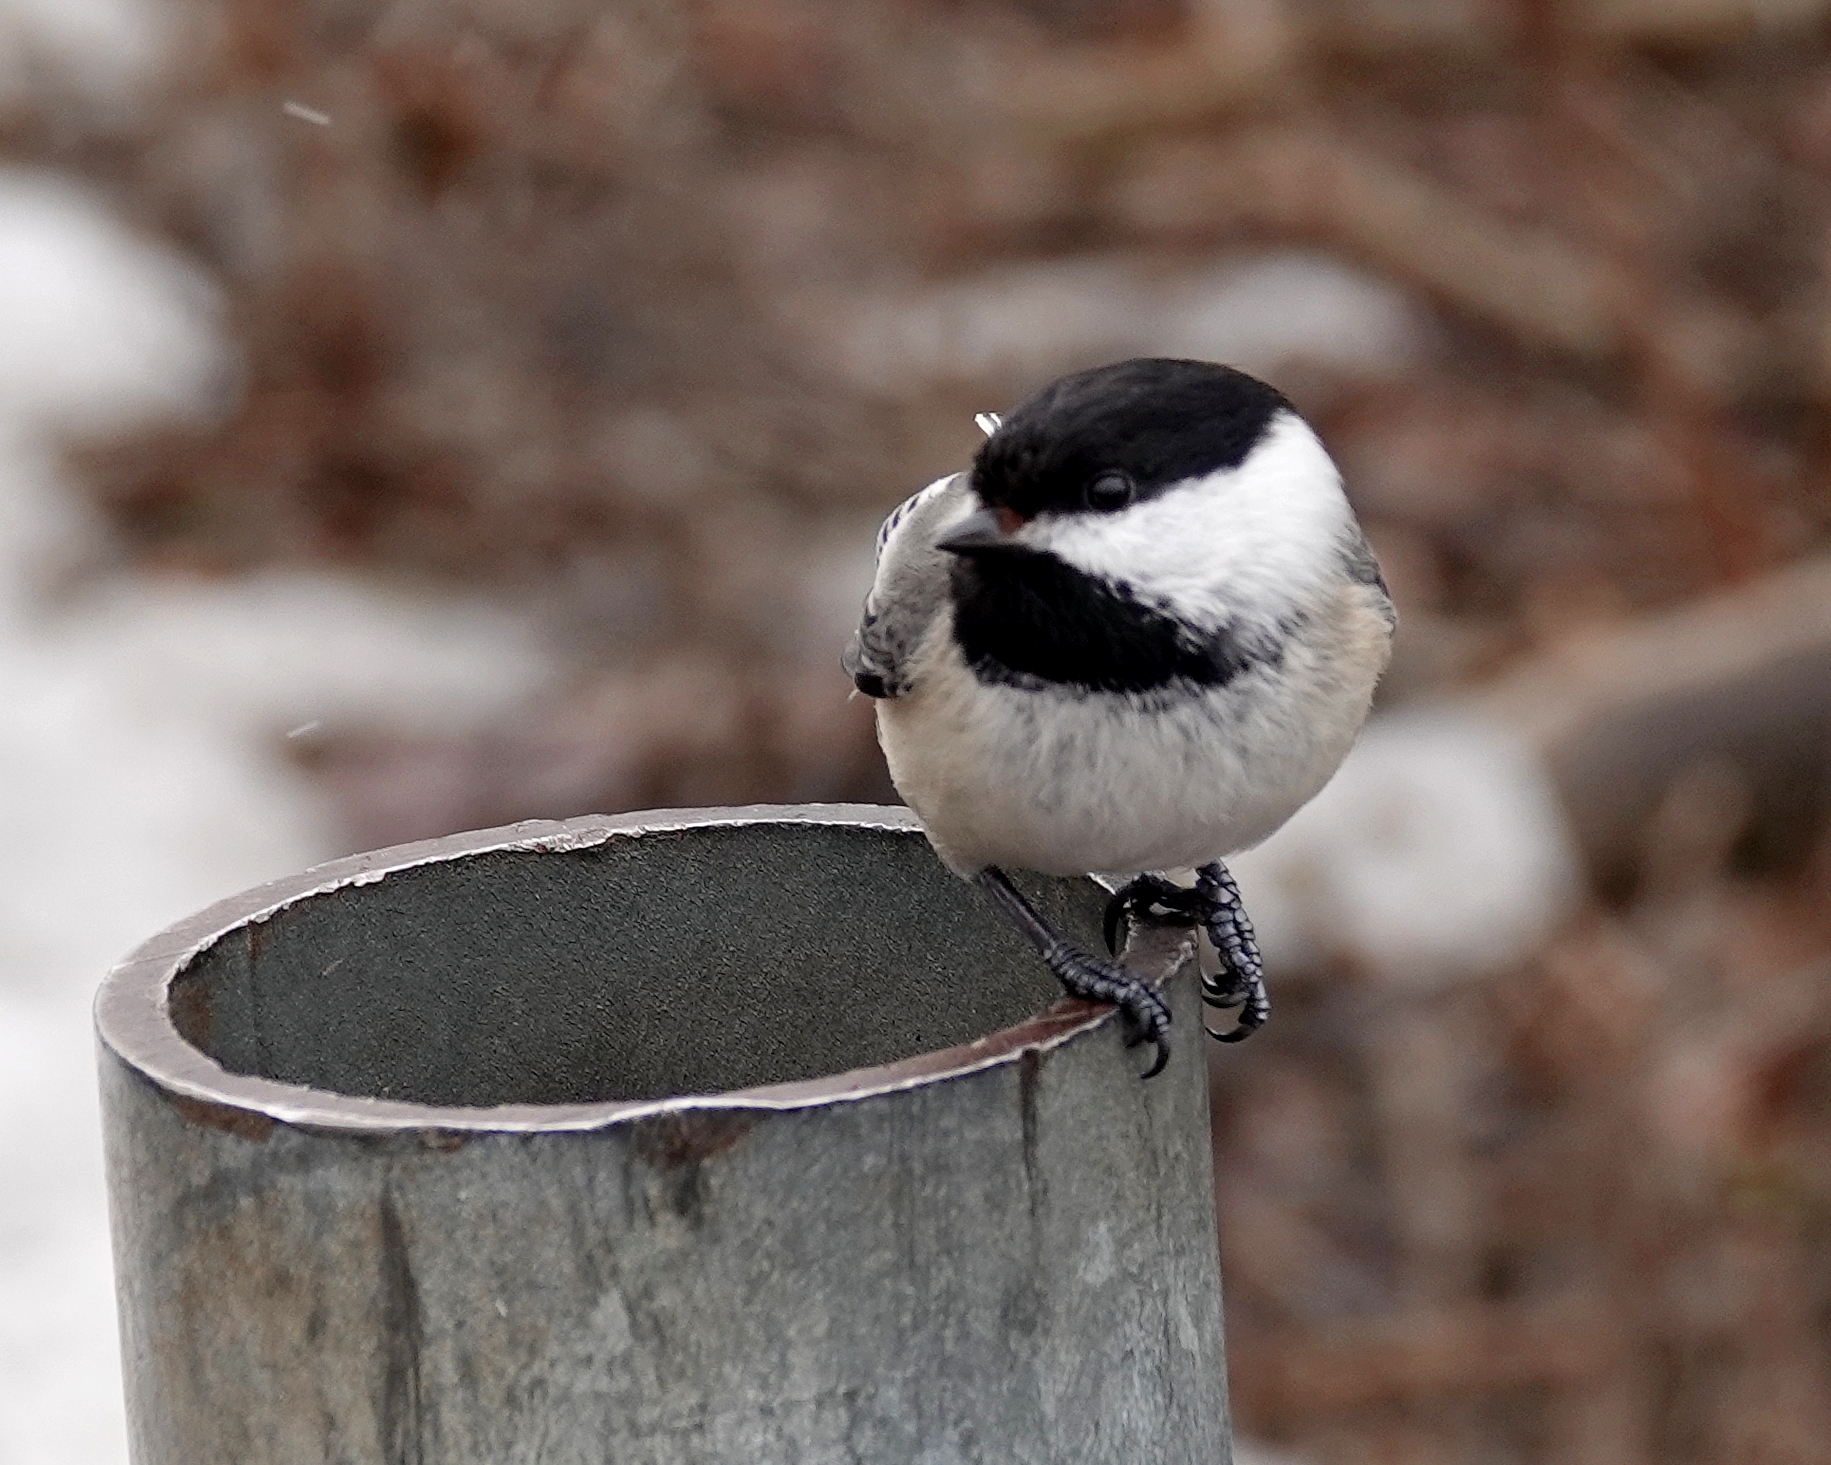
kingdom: Animalia
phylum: Chordata
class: Aves
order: Passeriformes
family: Paridae
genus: Poecile
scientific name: Poecile atricapillus
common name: Black-capped chickadee
